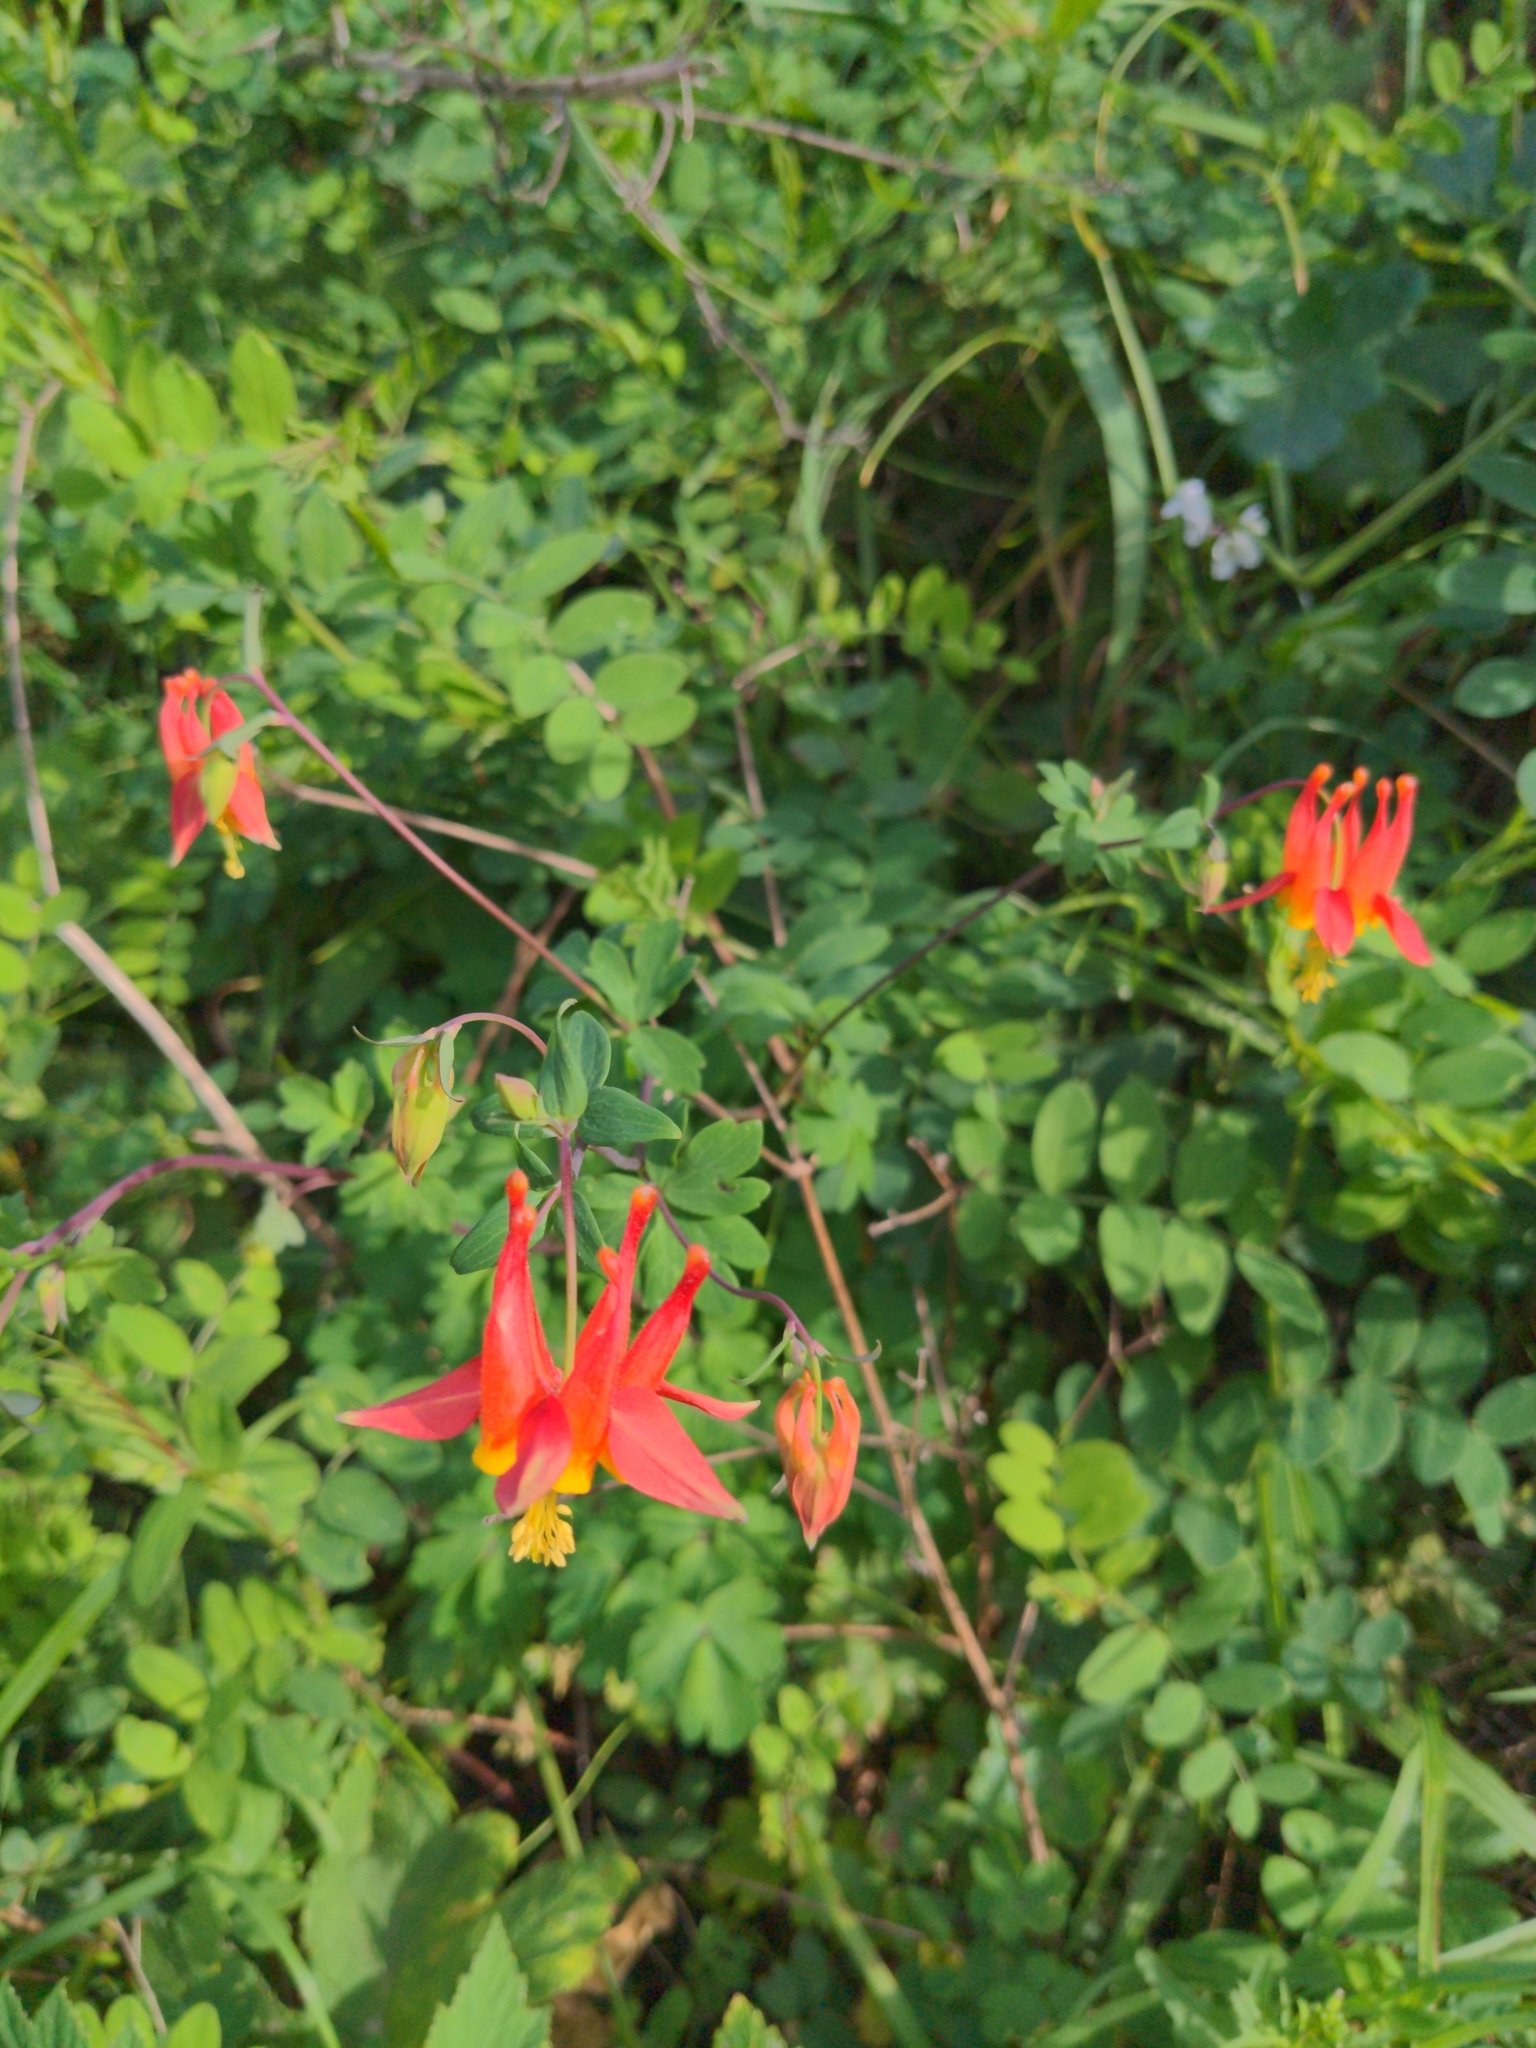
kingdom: Plantae
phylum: Tracheophyta
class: Magnoliopsida
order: Ranunculales
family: Ranunculaceae
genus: Aquilegia
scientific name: Aquilegia formosa
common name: Sitka columbine
